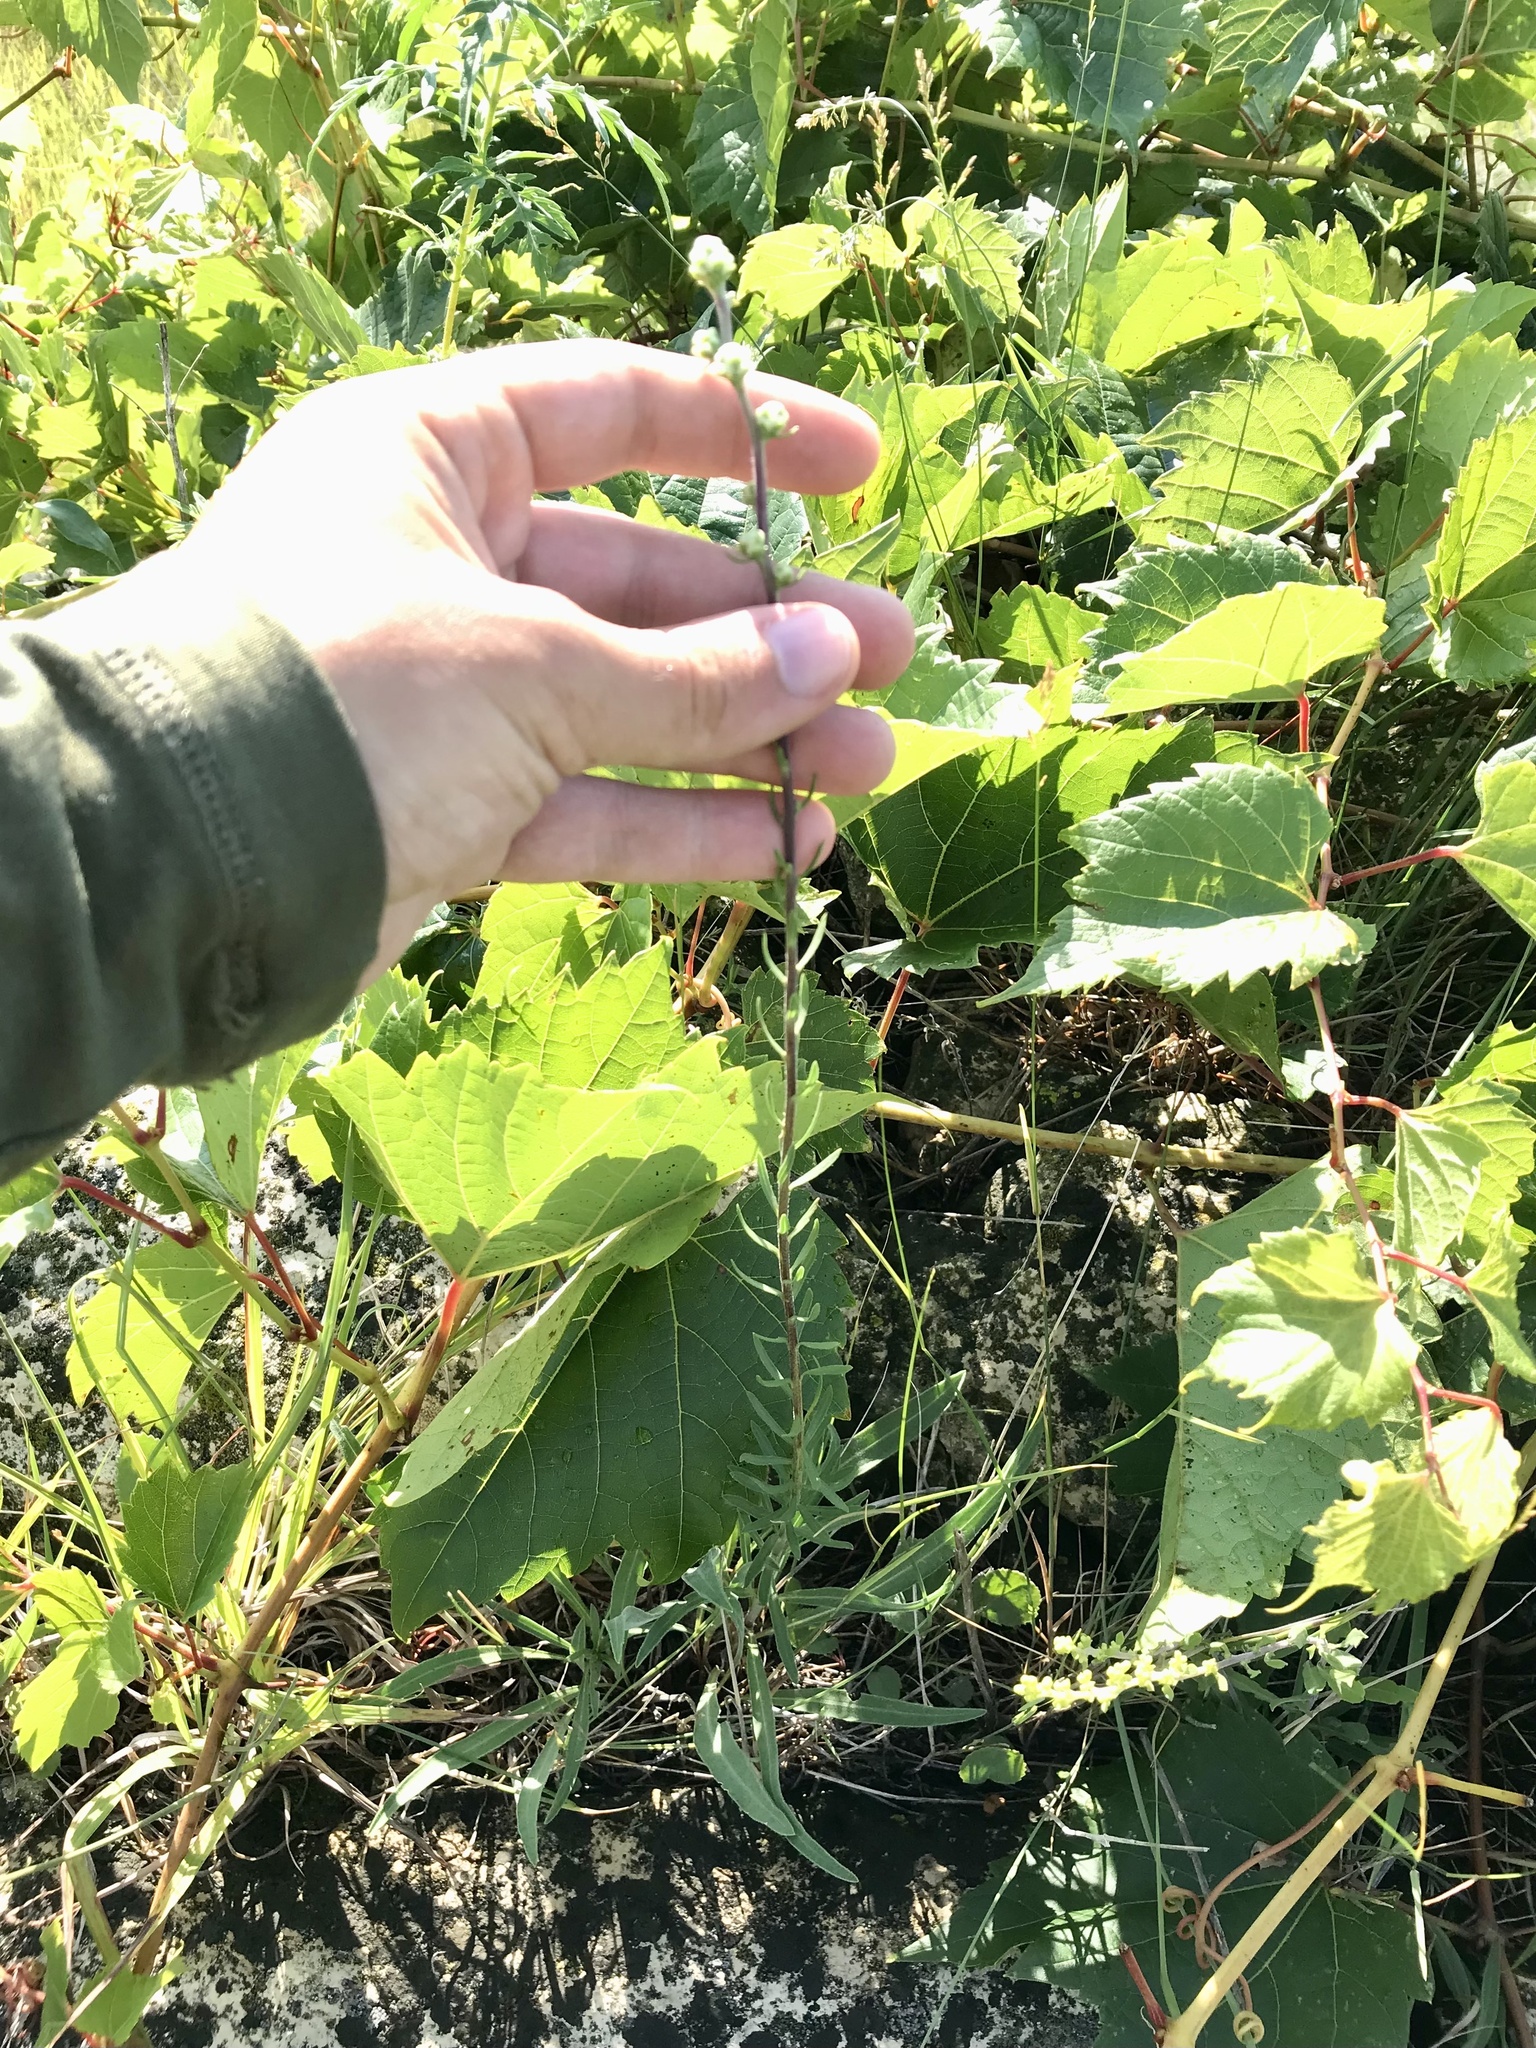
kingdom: Plantae
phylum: Tracheophyta
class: Magnoliopsida
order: Asterales
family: Asteraceae
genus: Liatris
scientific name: Liatris aspera
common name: Lacerate blazing-star
